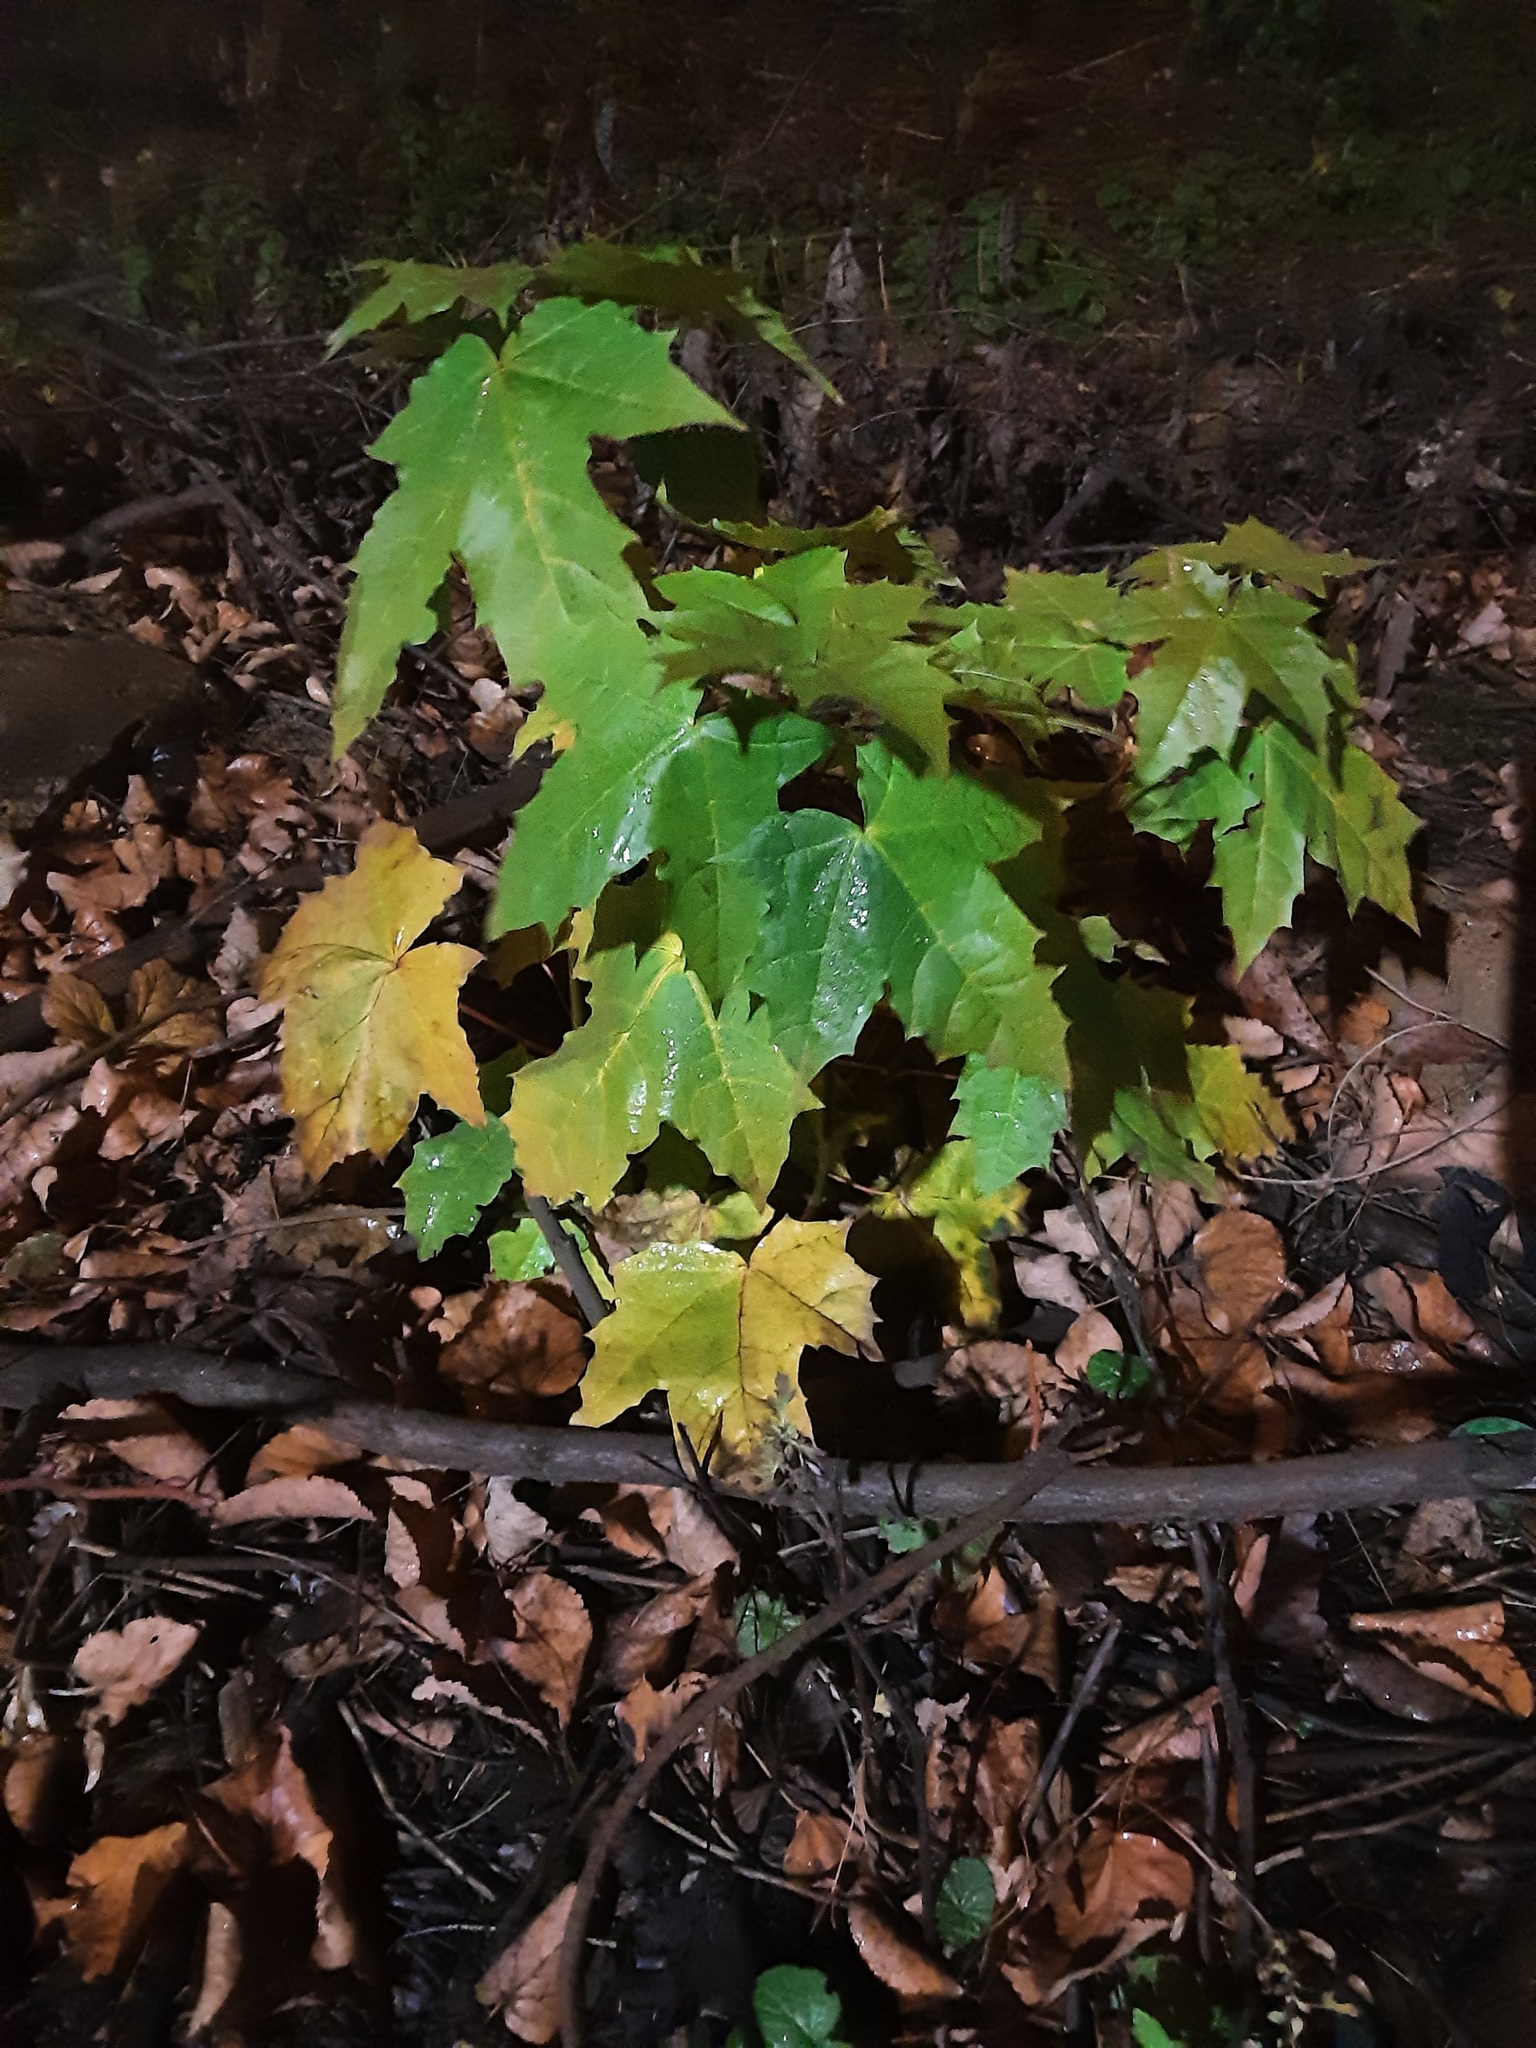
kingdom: Plantae
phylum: Tracheophyta
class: Magnoliopsida
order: Sapindales
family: Sapindaceae
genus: Acer
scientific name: Acer platanoides
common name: Norway maple
